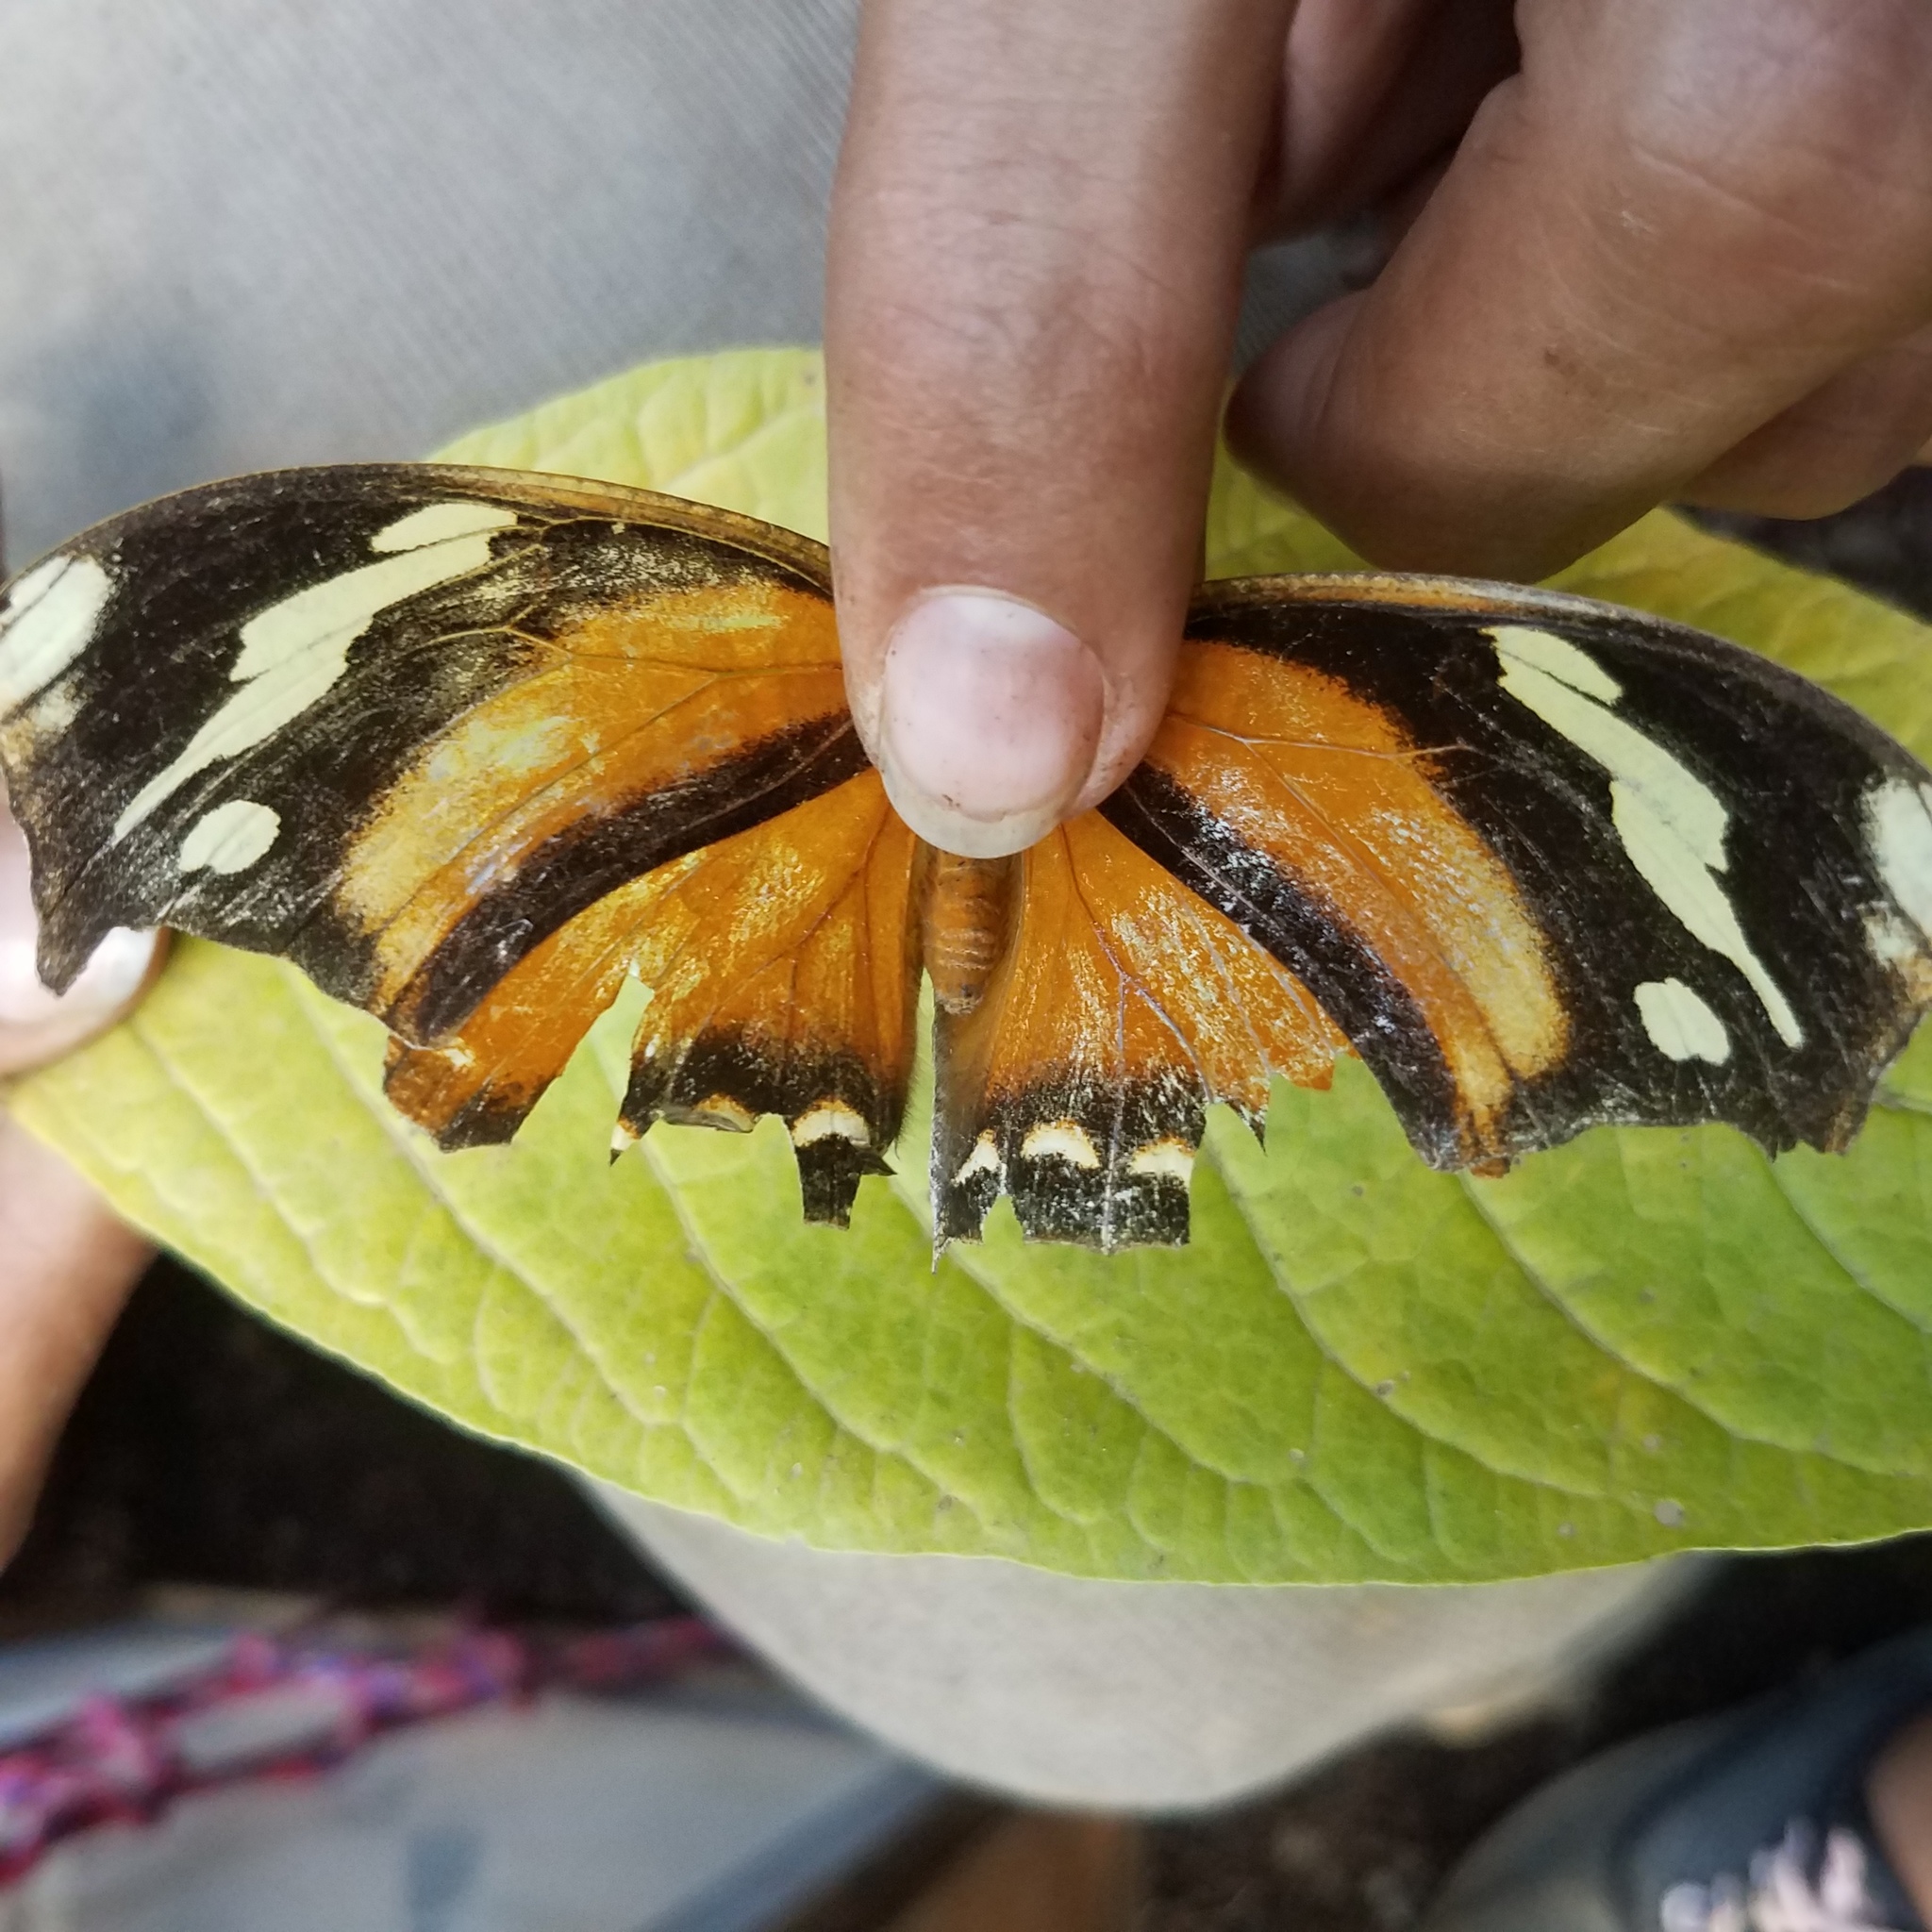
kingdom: Animalia
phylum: Arthropoda
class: Insecta
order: Lepidoptera
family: Nymphalidae
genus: Consul
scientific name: Consul fabius
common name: Tiger leafwing
